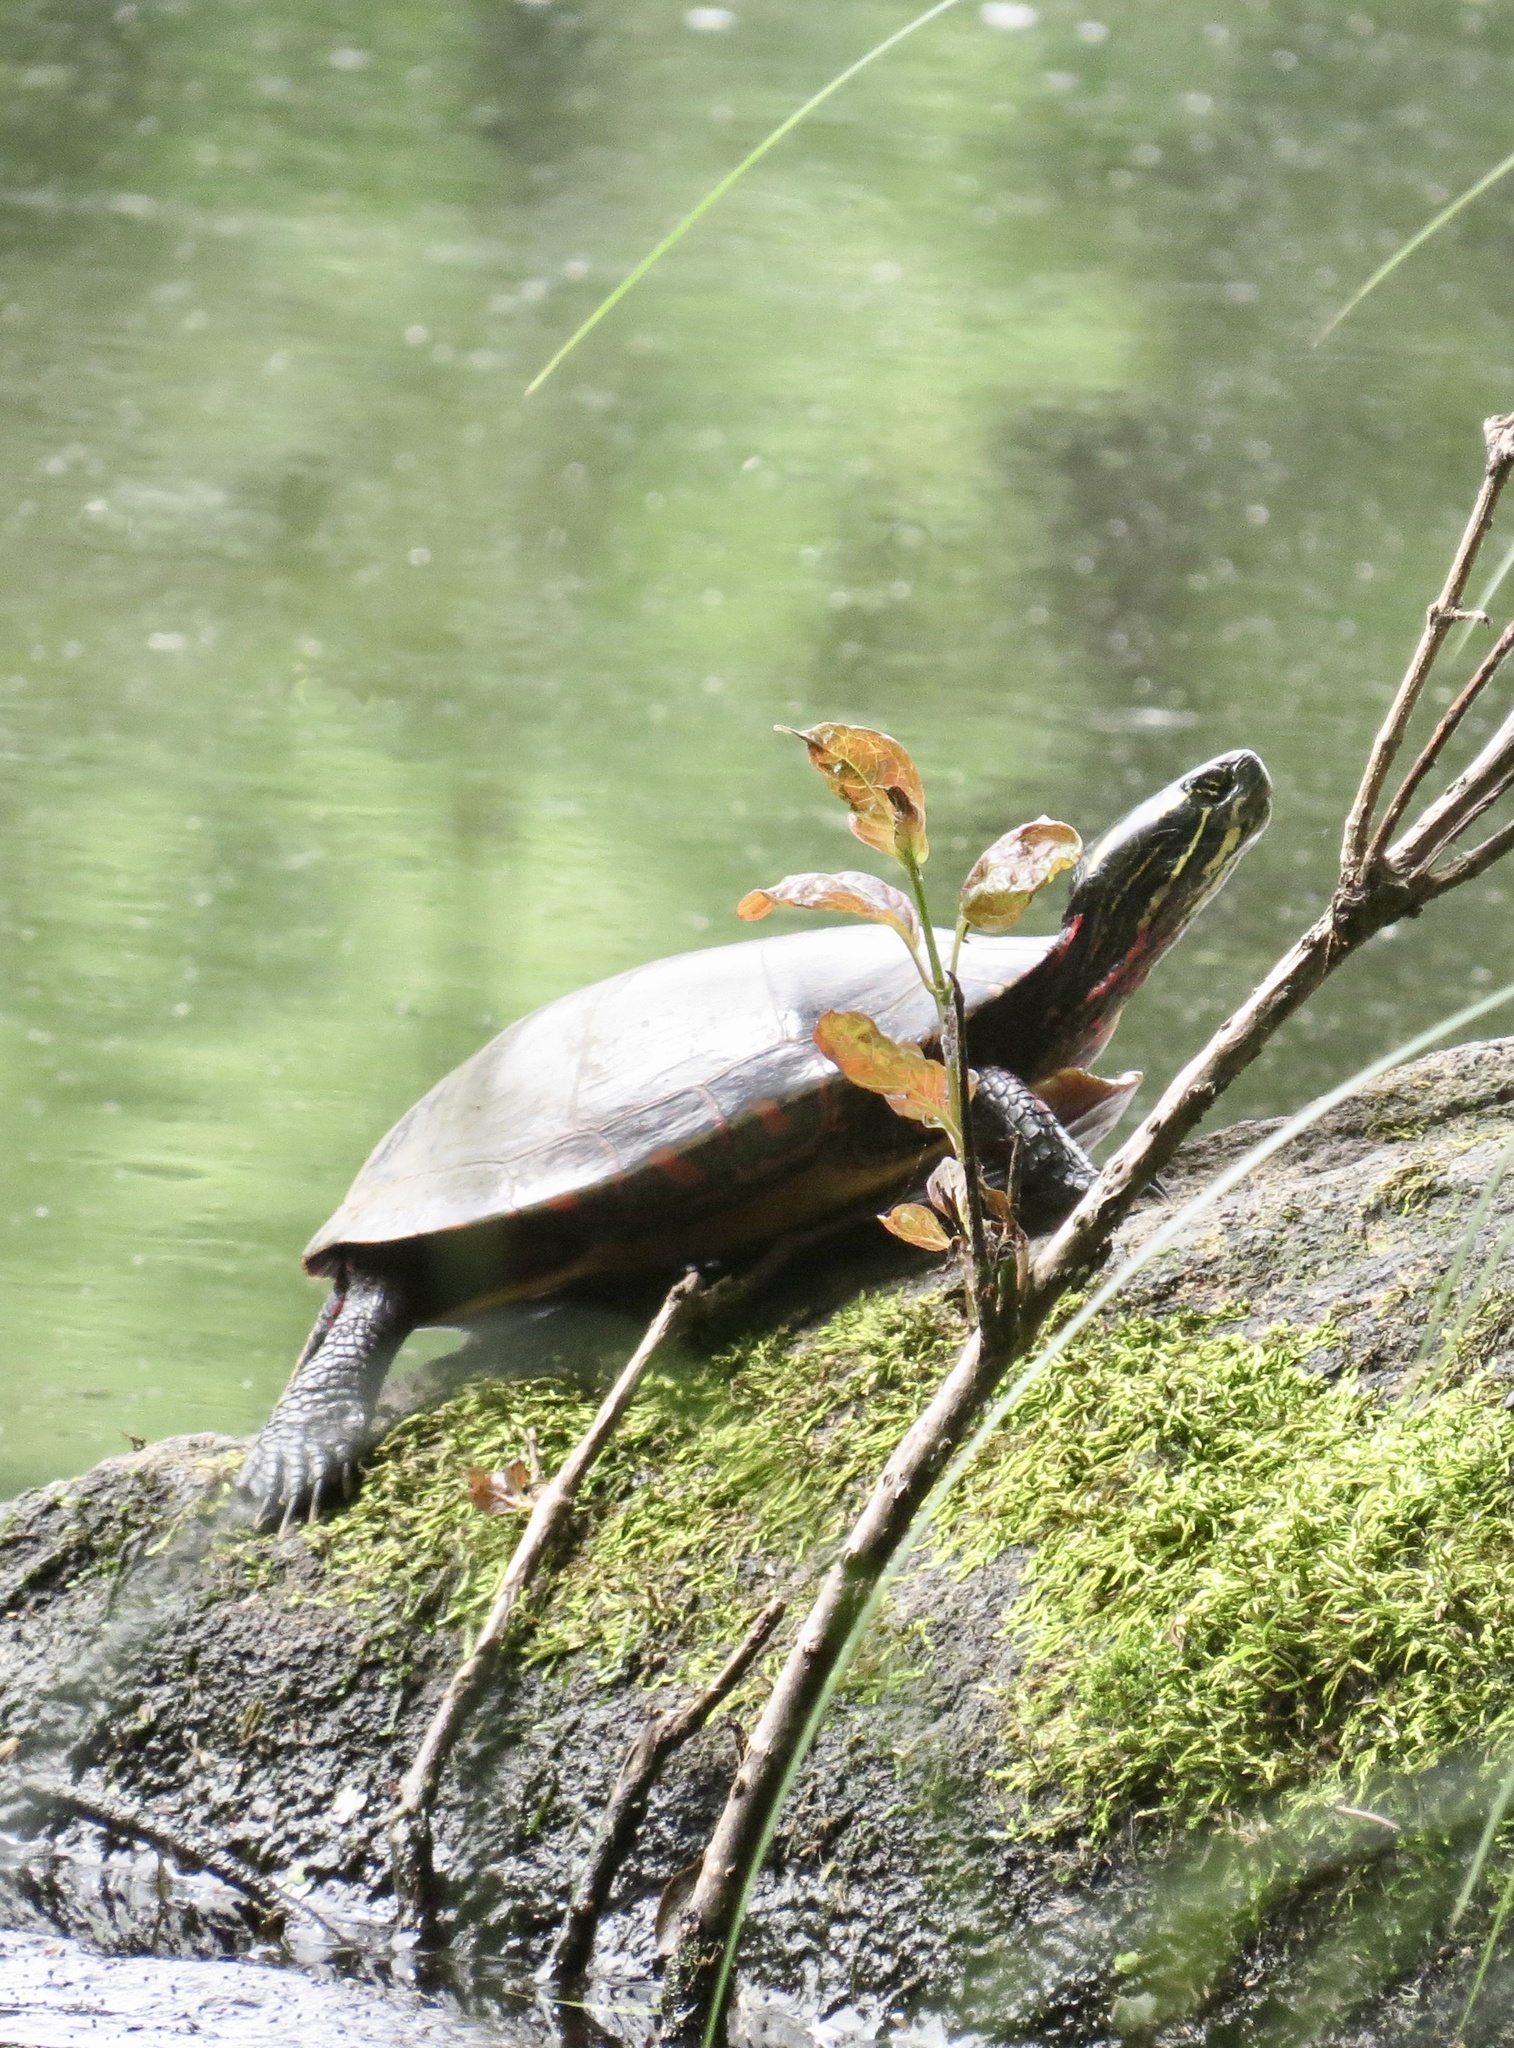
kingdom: Animalia
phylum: Chordata
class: Testudines
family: Emydidae
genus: Chrysemys
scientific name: Chrysemys picta
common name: Painted turtle
